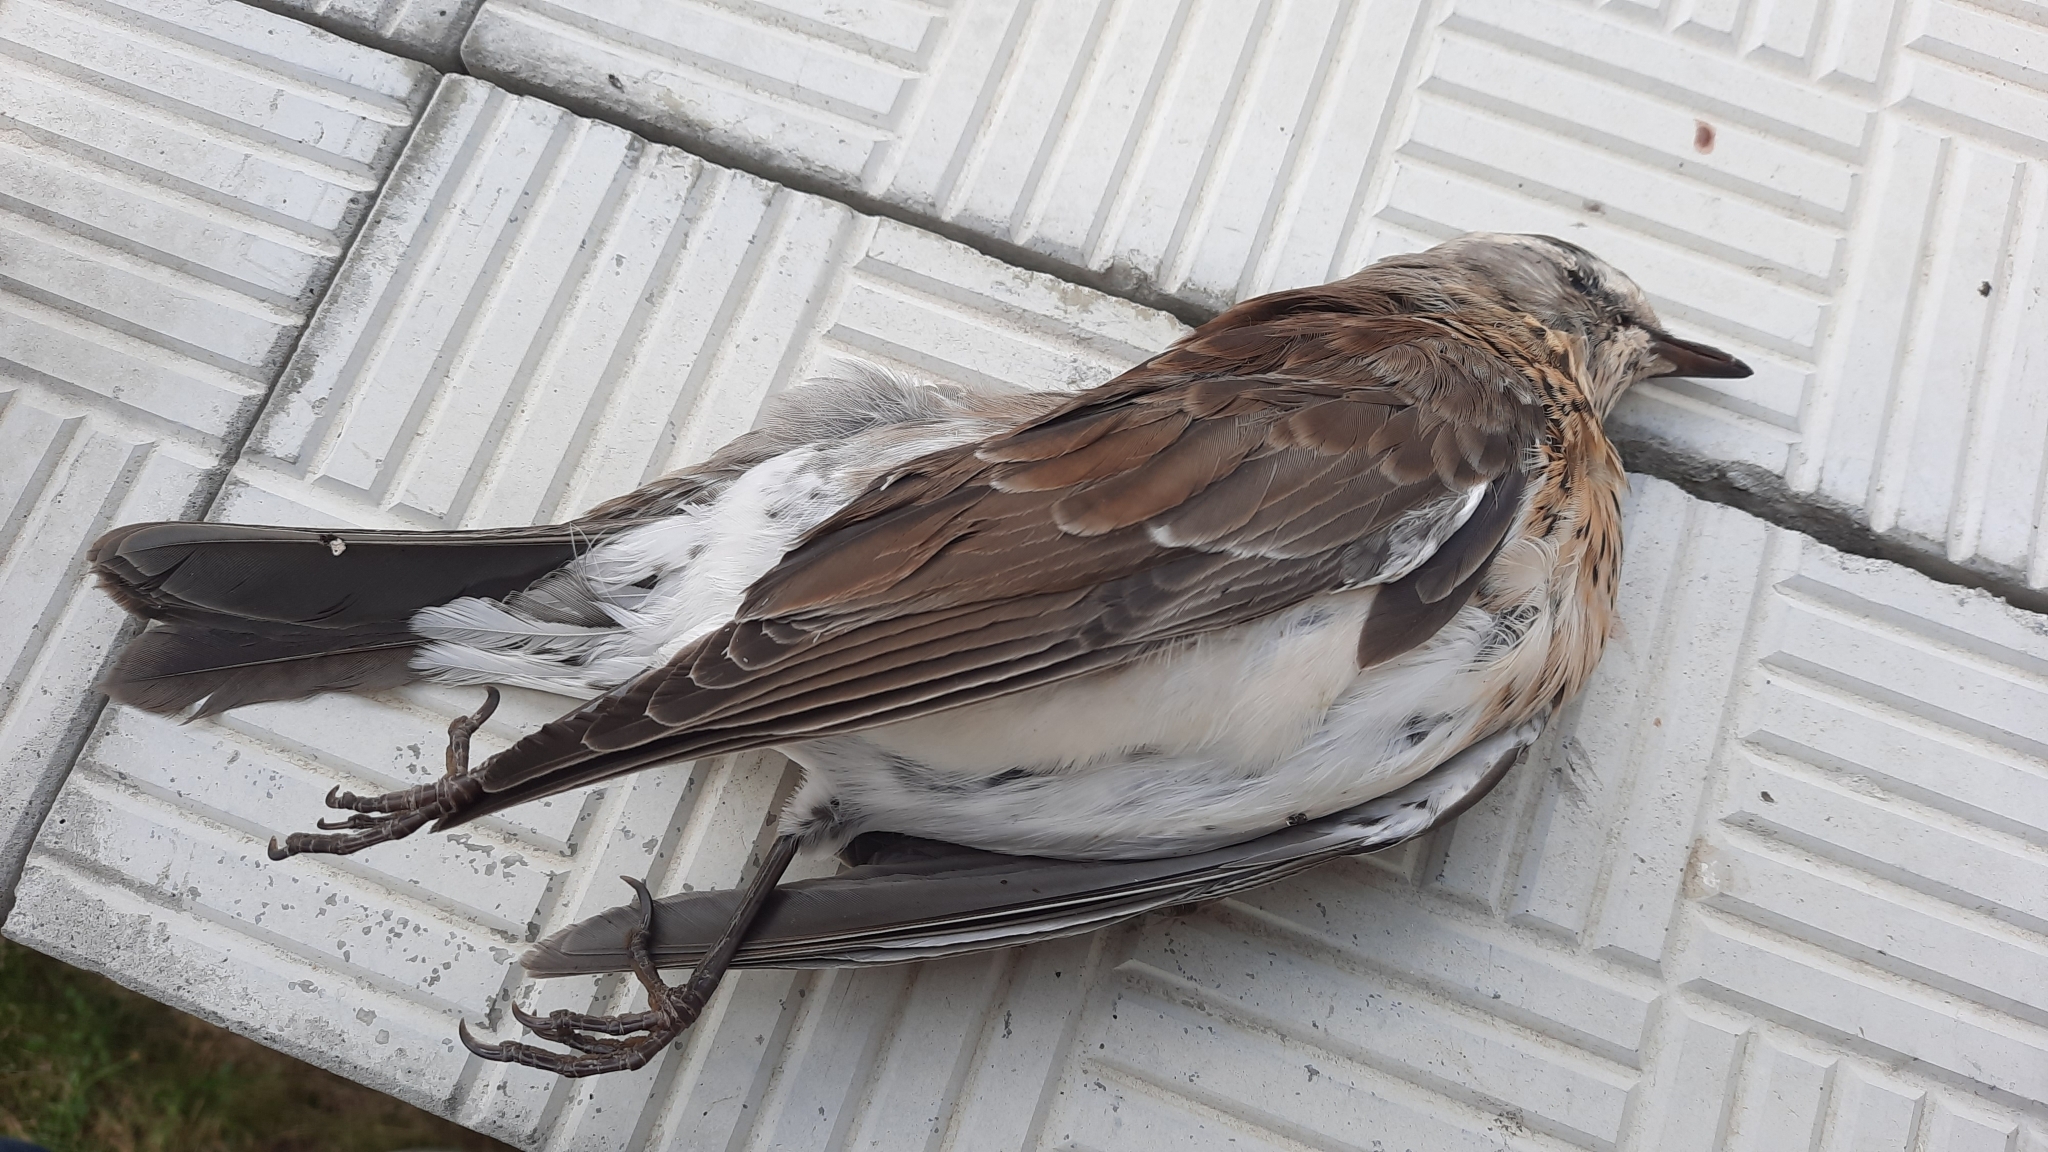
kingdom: Animalia
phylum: Chordata
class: Aves
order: Passeriformes
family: Turdidae
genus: Turdus
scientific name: Turdus pilaris
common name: Fieldfare
